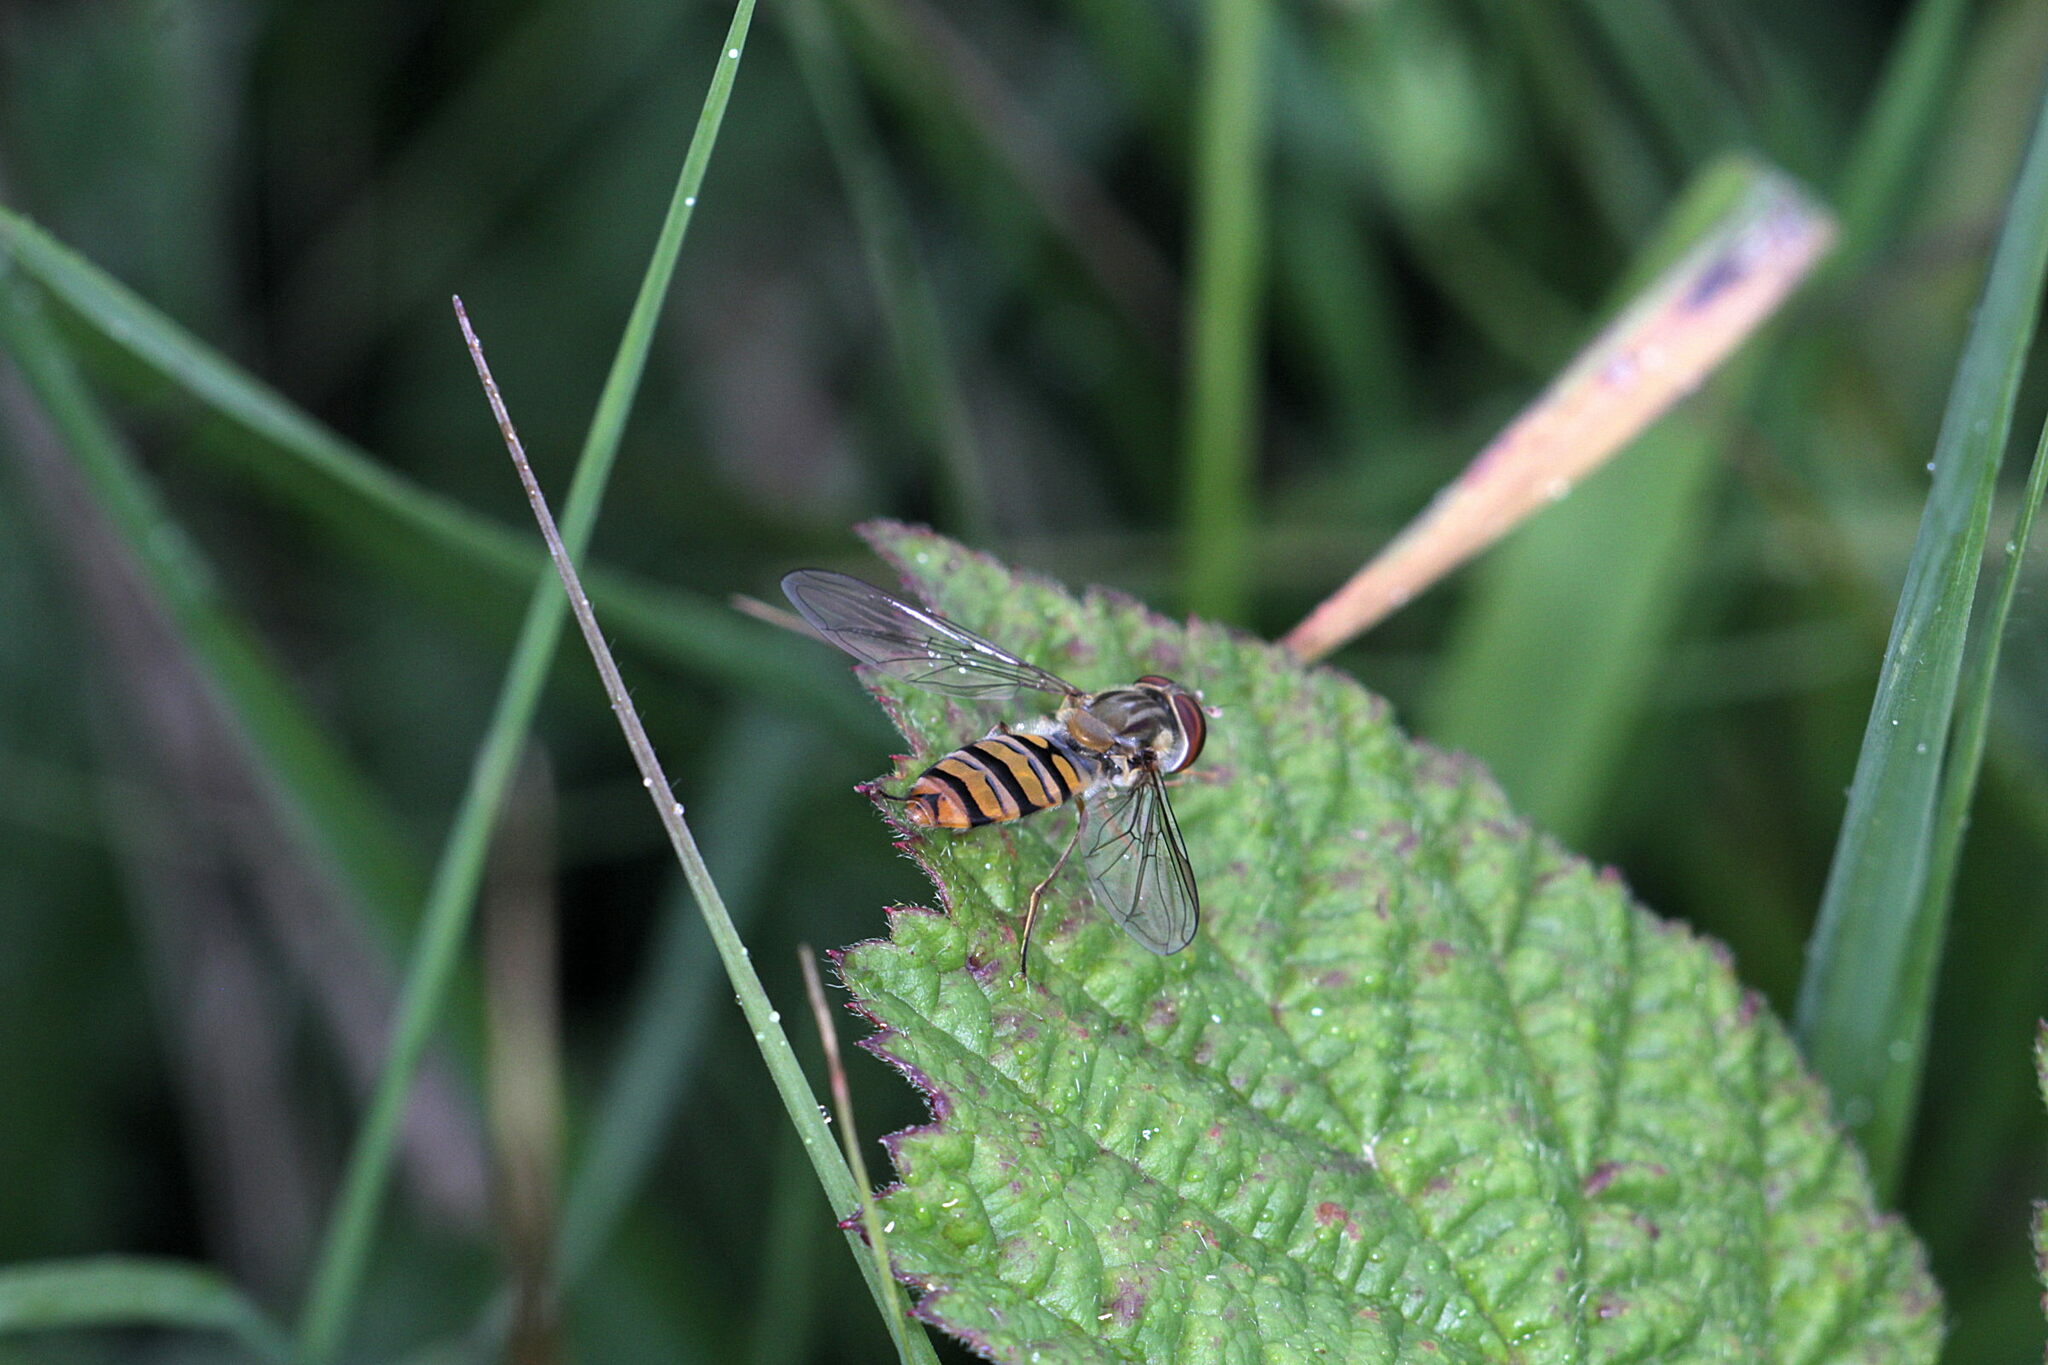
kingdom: Animalia
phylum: Arthropoda
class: Insecta
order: Diptera
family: Syrphidae
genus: Episyrphus
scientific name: Episyrphus balteatus
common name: Marmalade hoverfly
